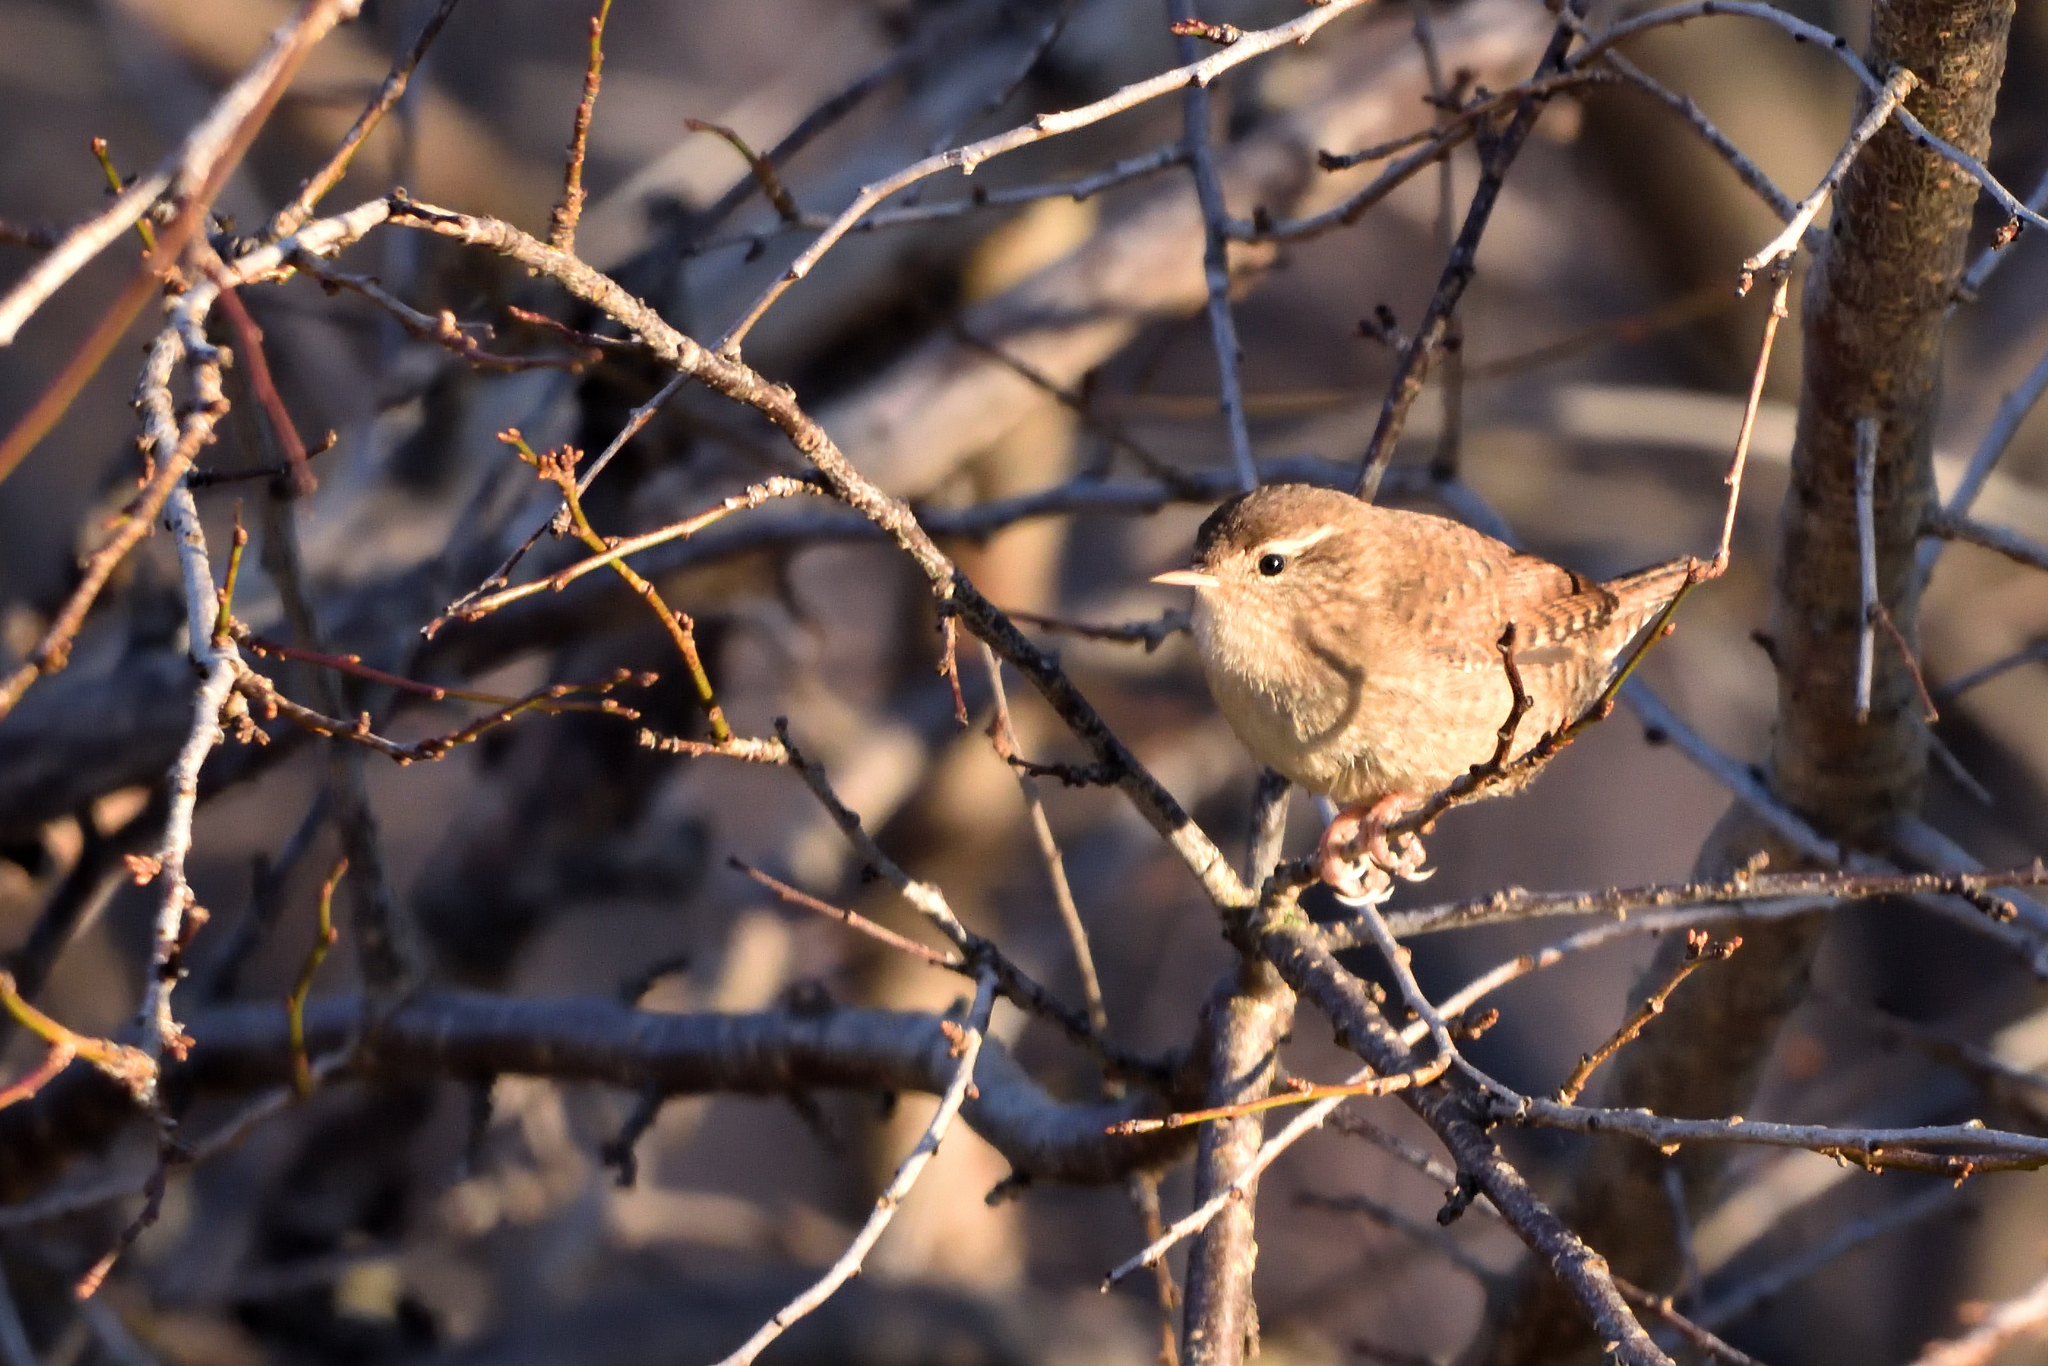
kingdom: Animalia
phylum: Chordata
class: Aves
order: Passeriformes
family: Troglodytidae
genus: Troglodytes
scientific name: Troglodytes troglodytes
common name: Eurasian wren
